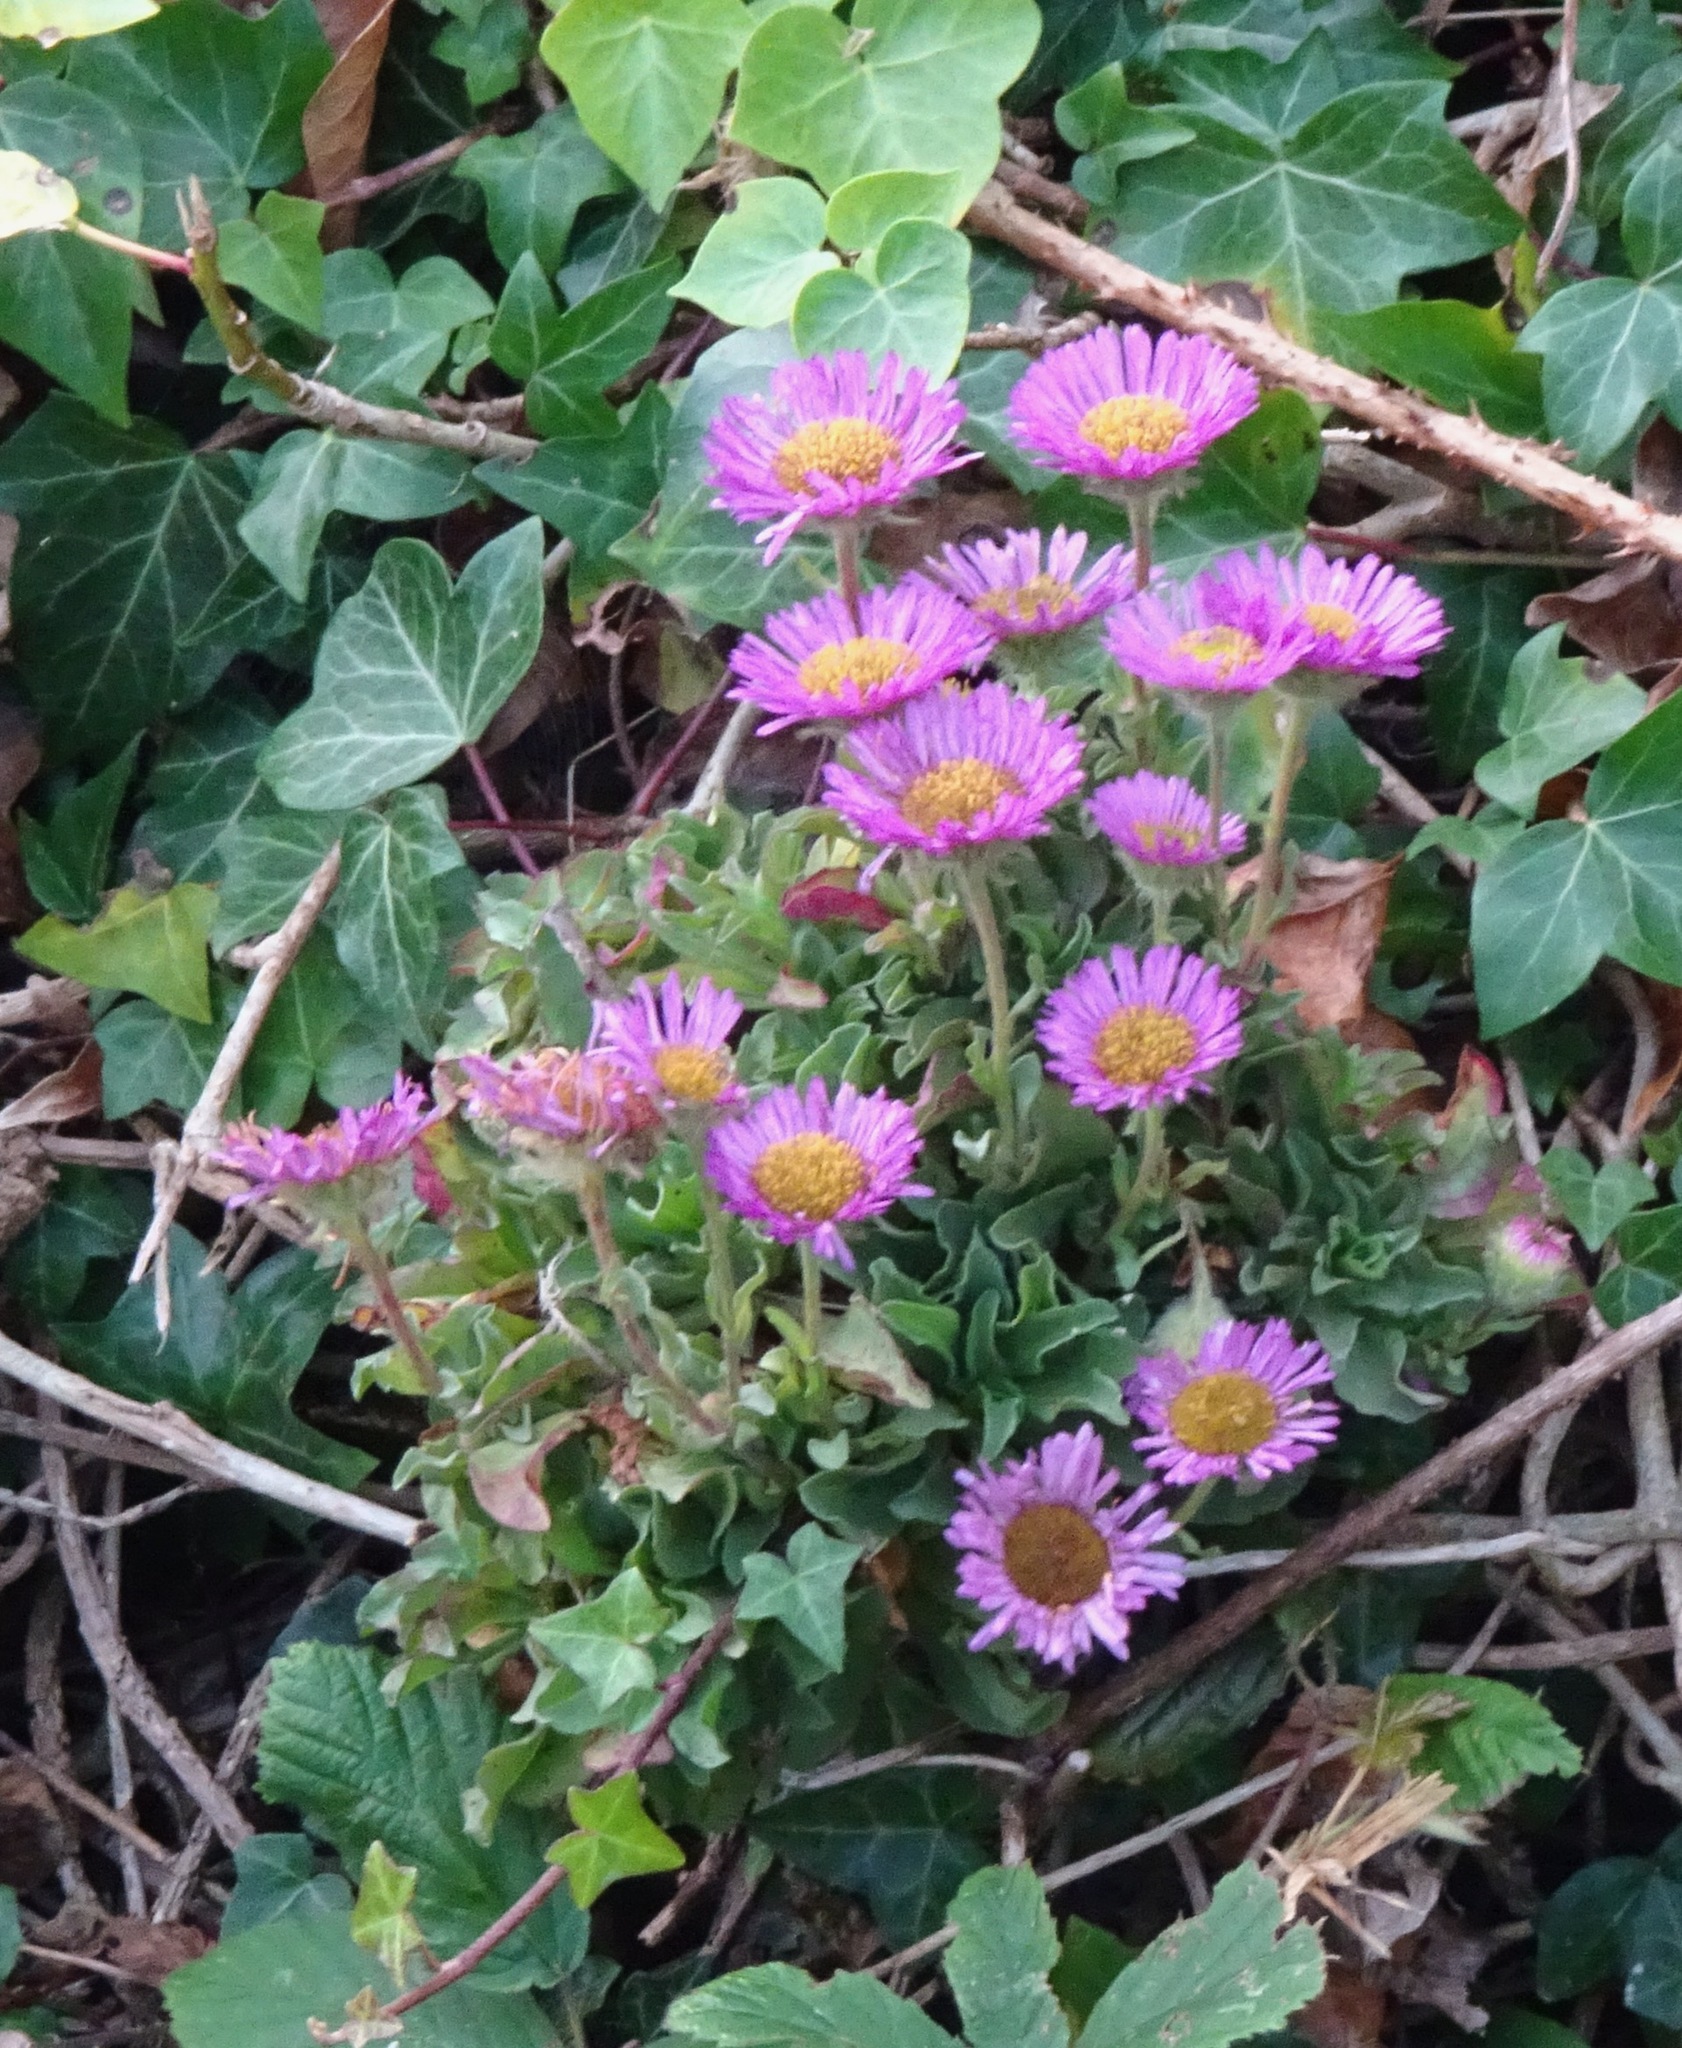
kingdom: Plantae
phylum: Tracheophyta
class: Magnoliopsida
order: Asterales
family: Asteraceae
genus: Erigeron
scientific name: Erigeron glaucus
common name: Seaside daisy
